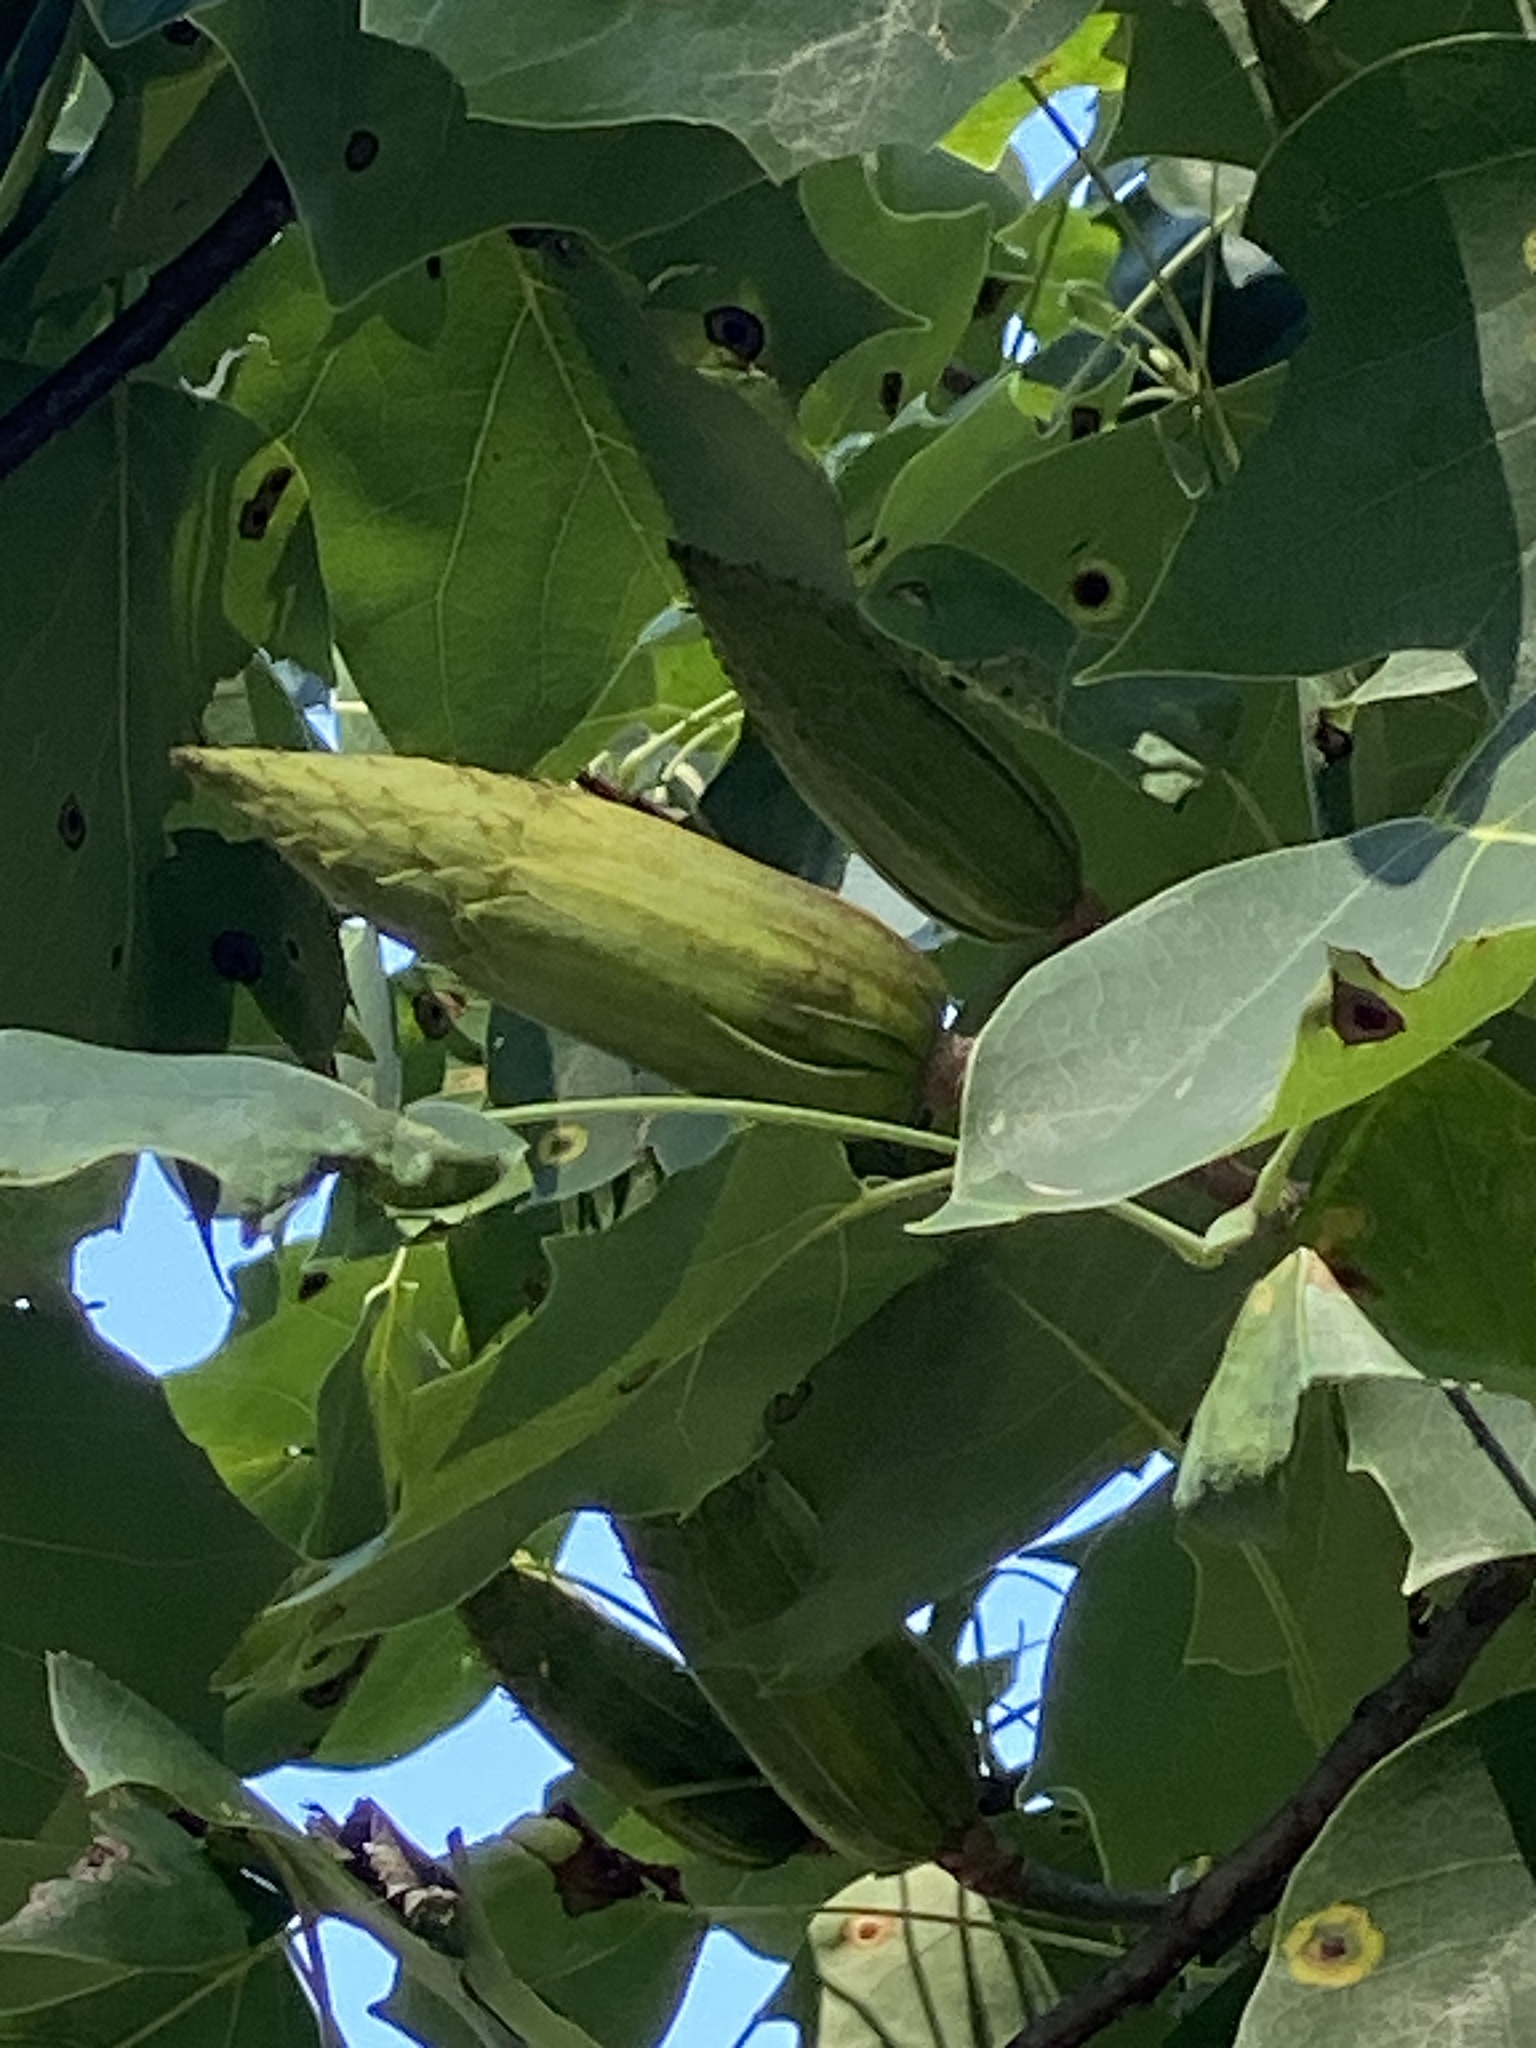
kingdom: Plantae
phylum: Tracheophyta
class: Magnoliopsida
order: Magnoliales
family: Magnoliaceae
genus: Liriodendron
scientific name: Liriodendron tulipifera
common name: Tulip tree
